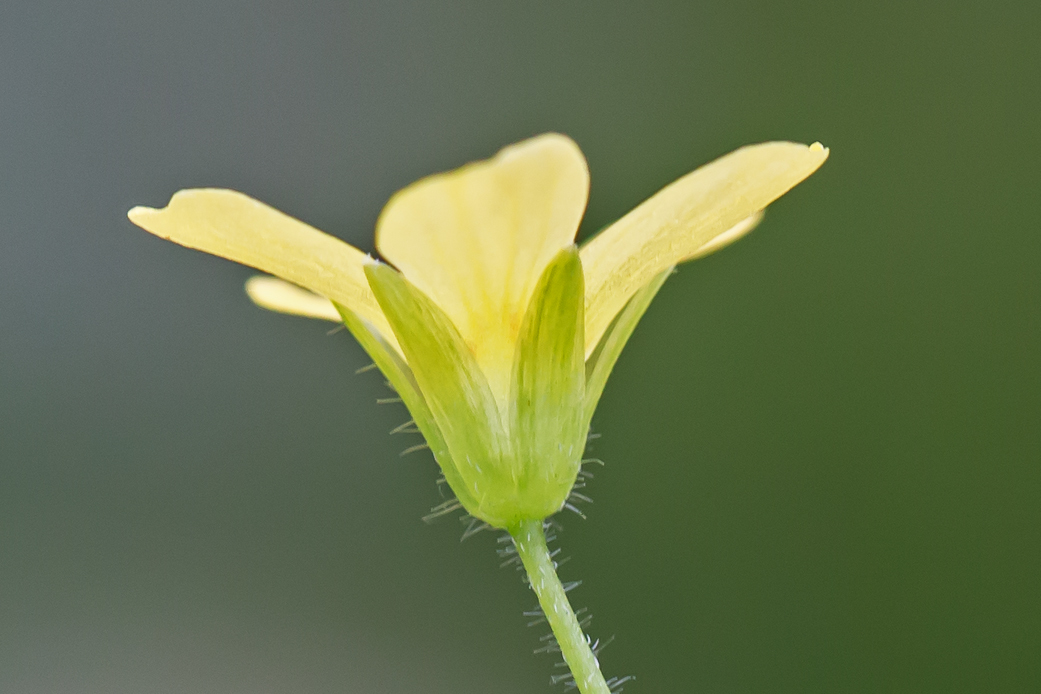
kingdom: Plantae
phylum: Tracheophyta
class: Magnoliopsida
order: Oxalidales
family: Oxalidaceae
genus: Oxalis
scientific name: Oxalis
